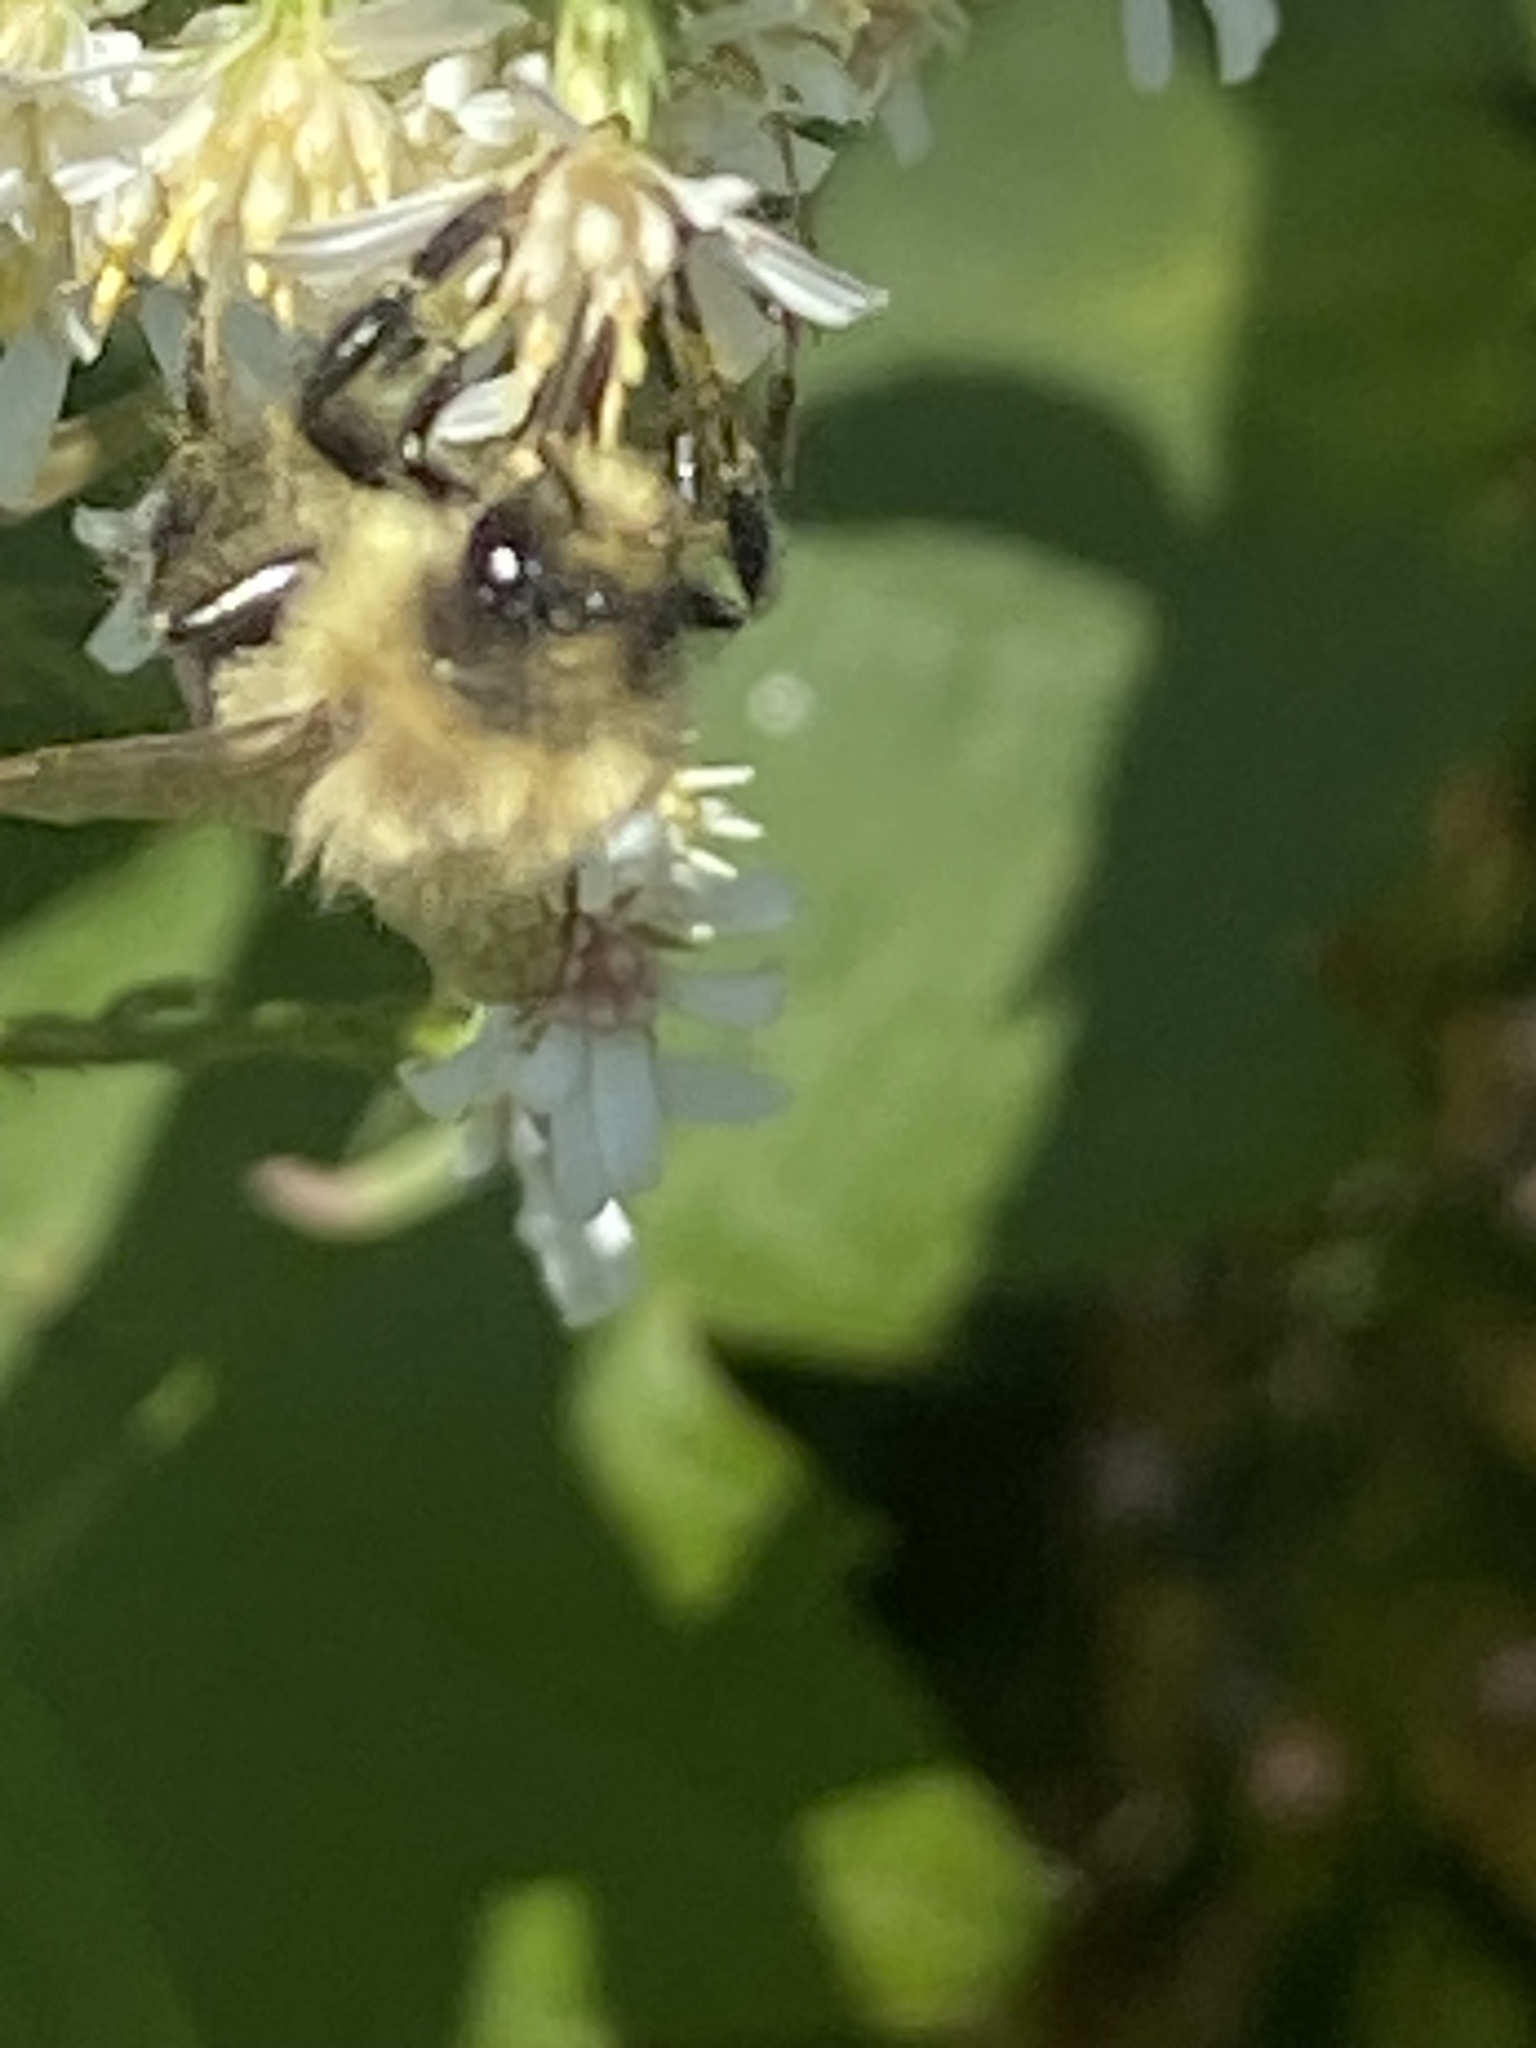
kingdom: Animalia
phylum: Arthropoda
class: Insecta
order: Hymenoptera
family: Apidae
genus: Bombus
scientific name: Bombus impatiens
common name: Common eastern bumble bee
